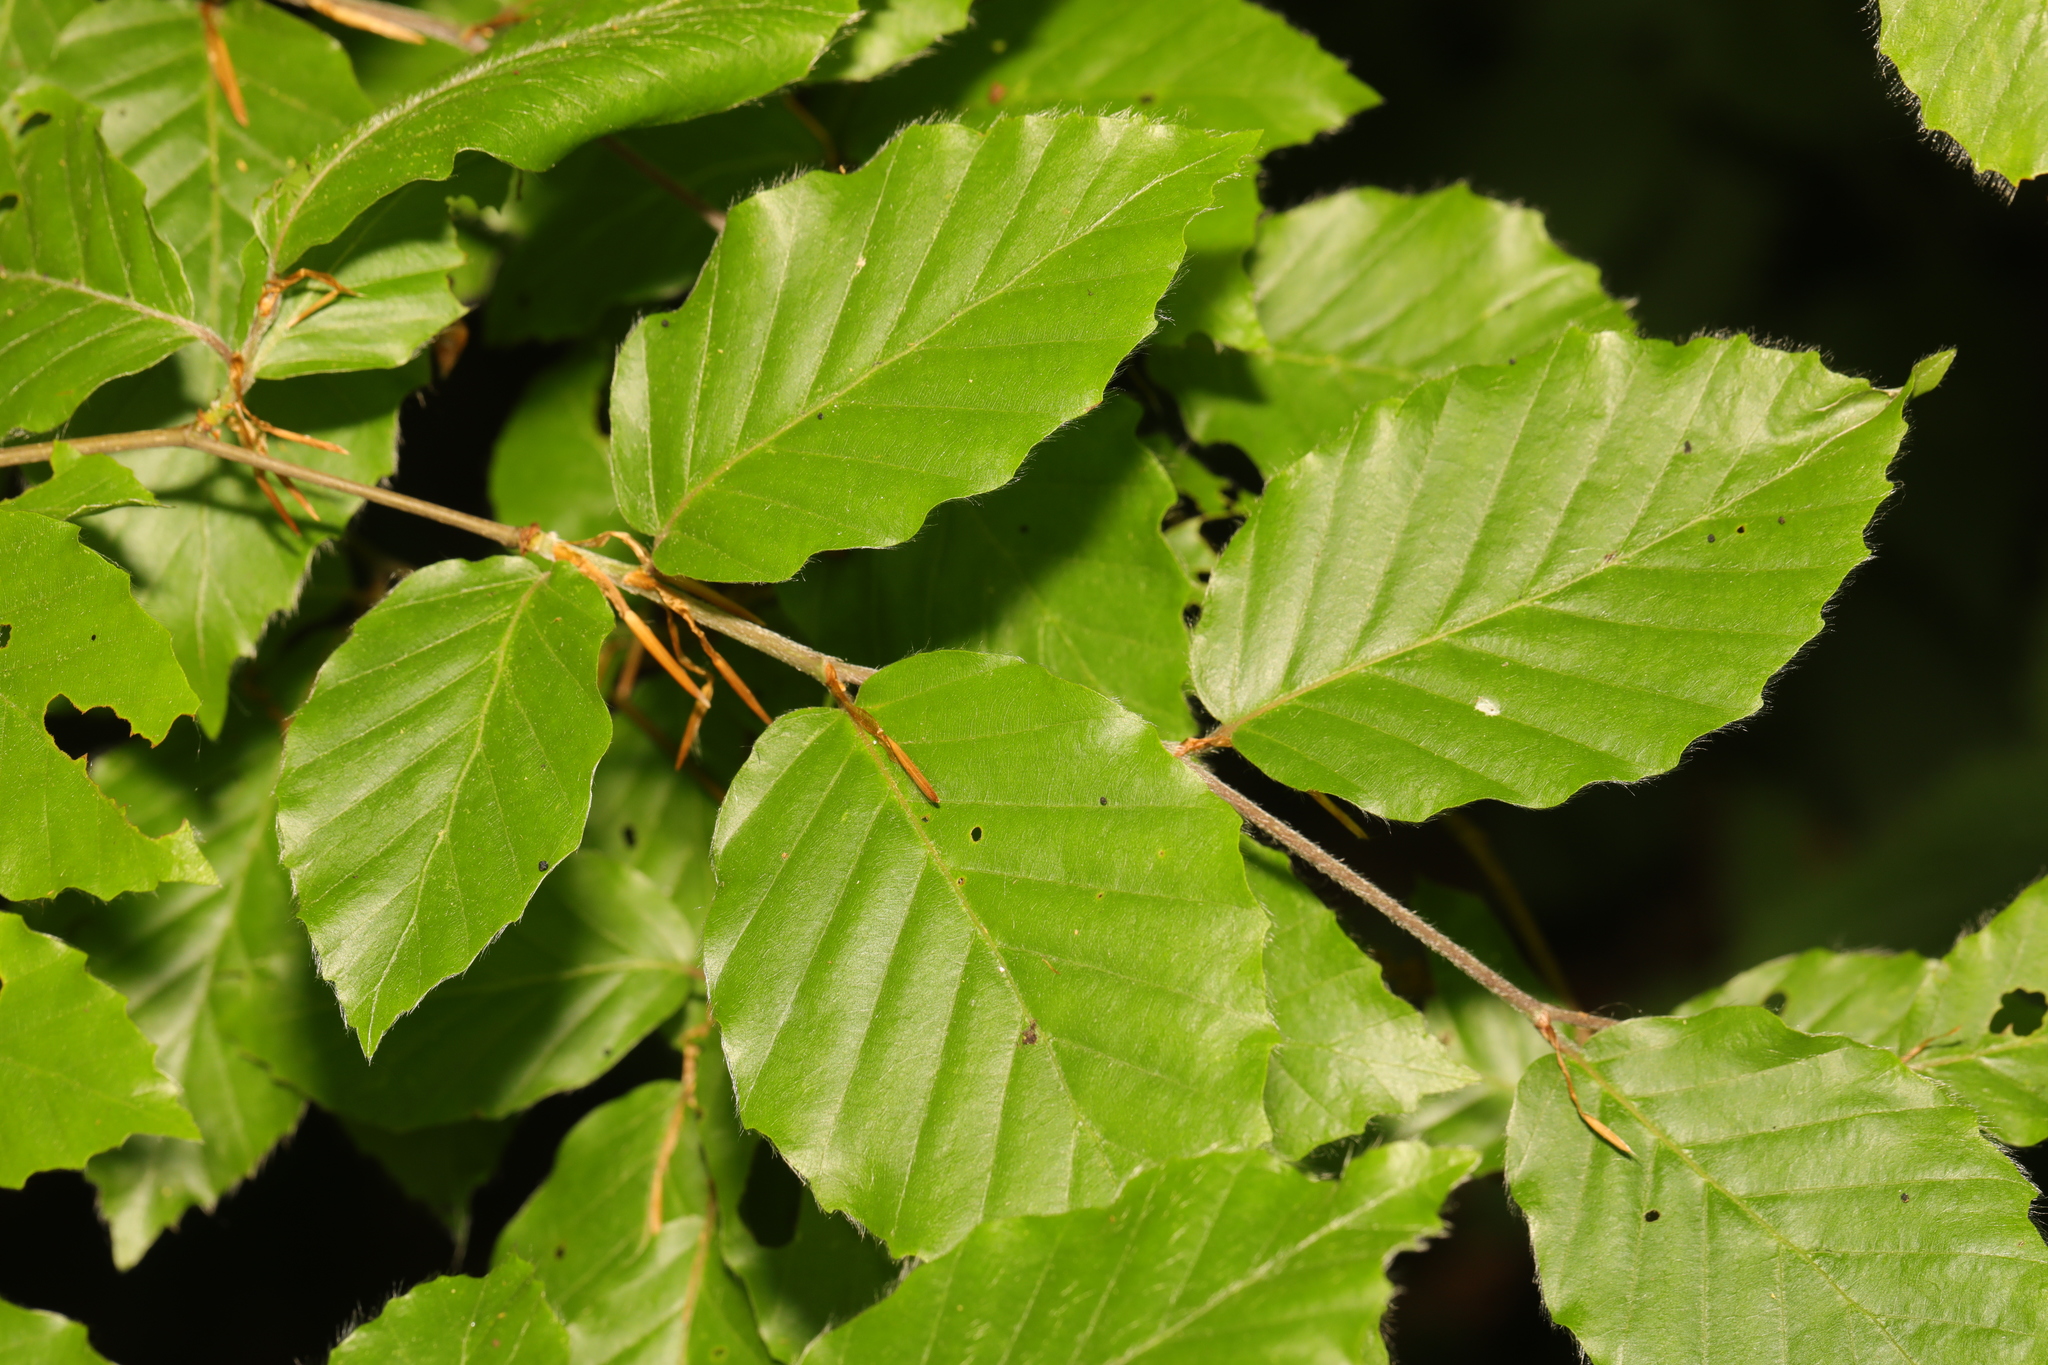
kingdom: Plantae
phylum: Tracheophyta
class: Magnoliopsida
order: Fagales
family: Fagaceae
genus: Fagus
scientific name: Fagus sylvatica
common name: Beech
